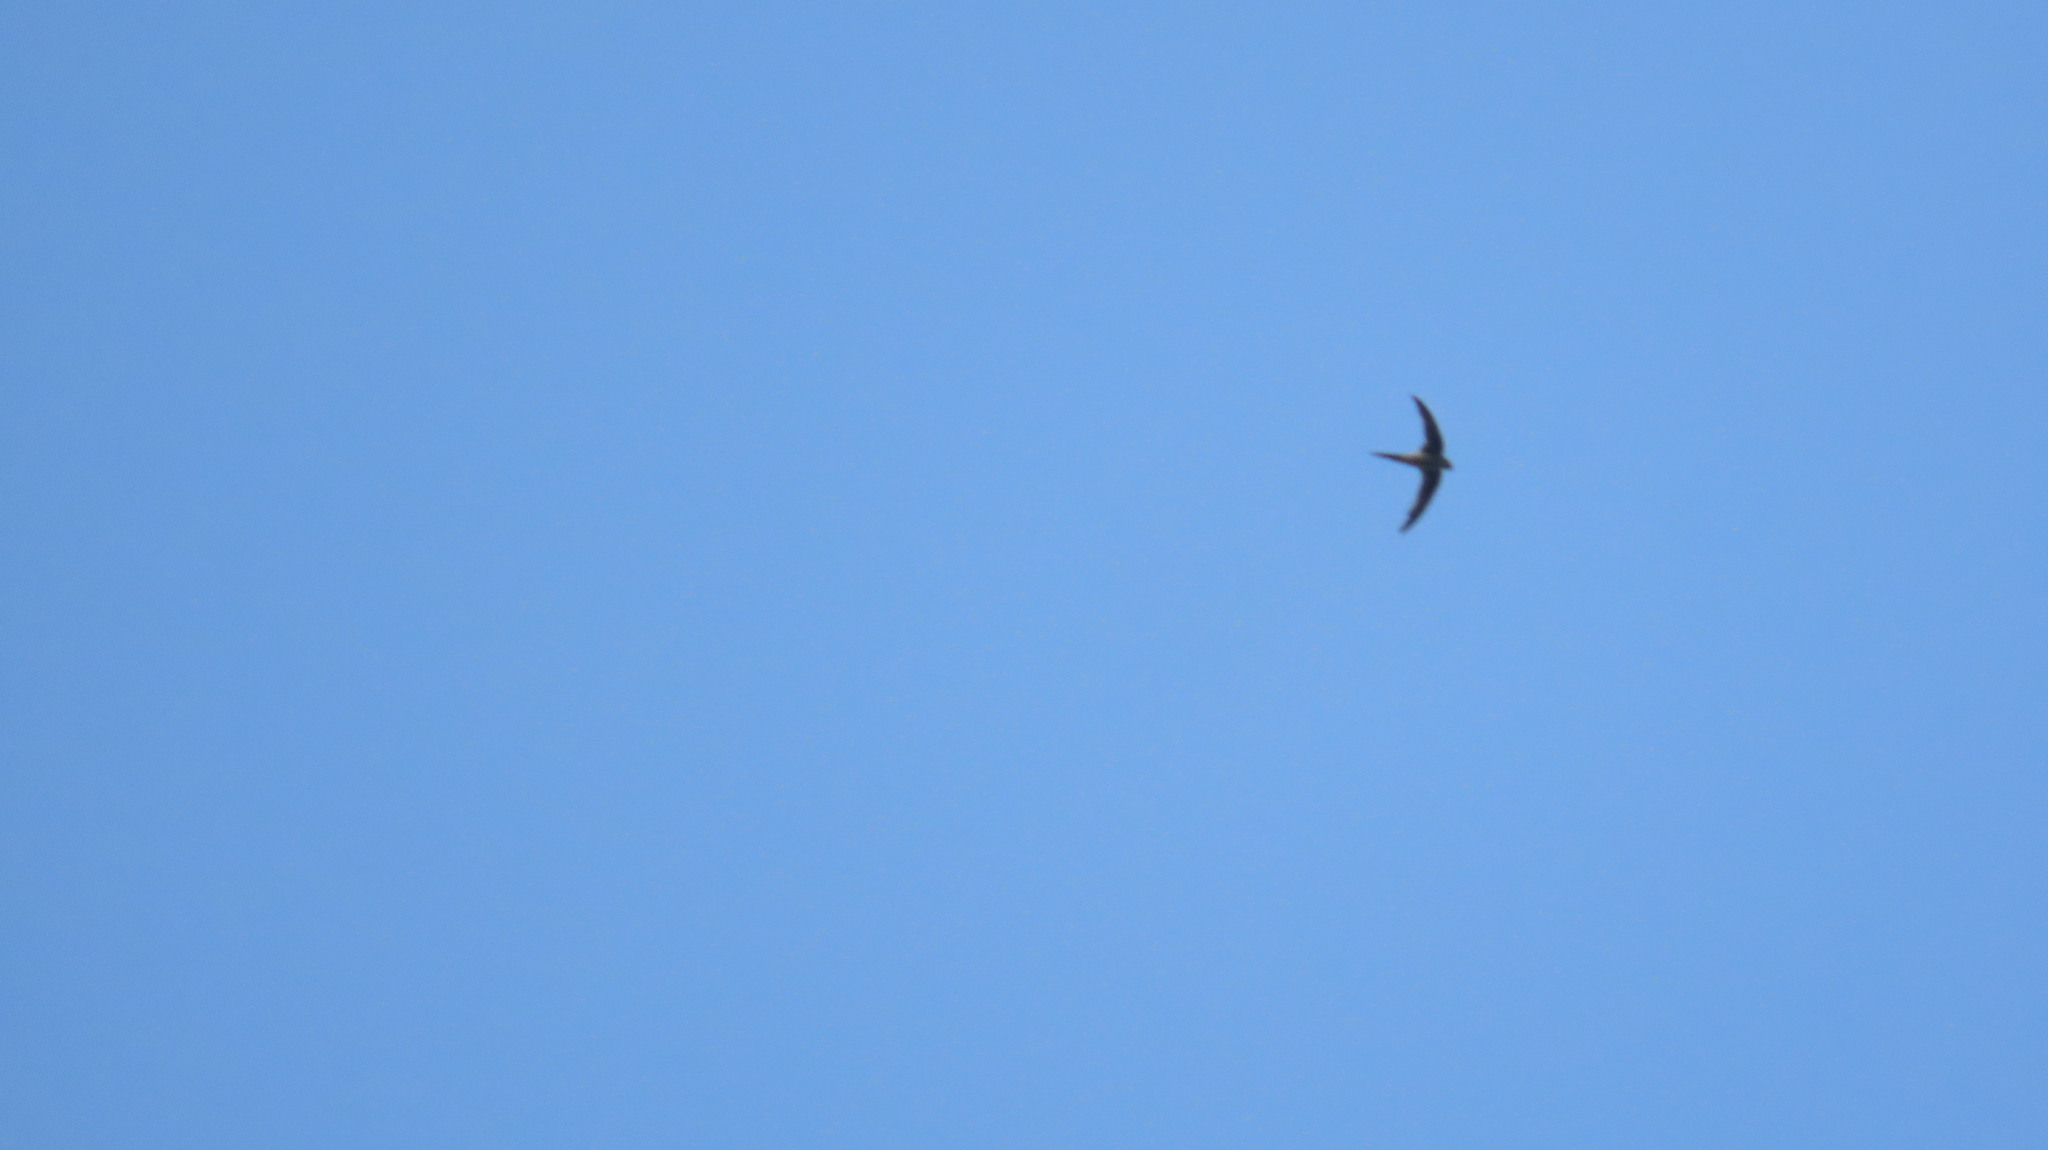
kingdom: Animalia
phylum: Chordata
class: Aves
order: Apodiformes
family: Apodidae
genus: Cypsiurus
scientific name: Cypsiurus balasiensis
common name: Asian palm swift
